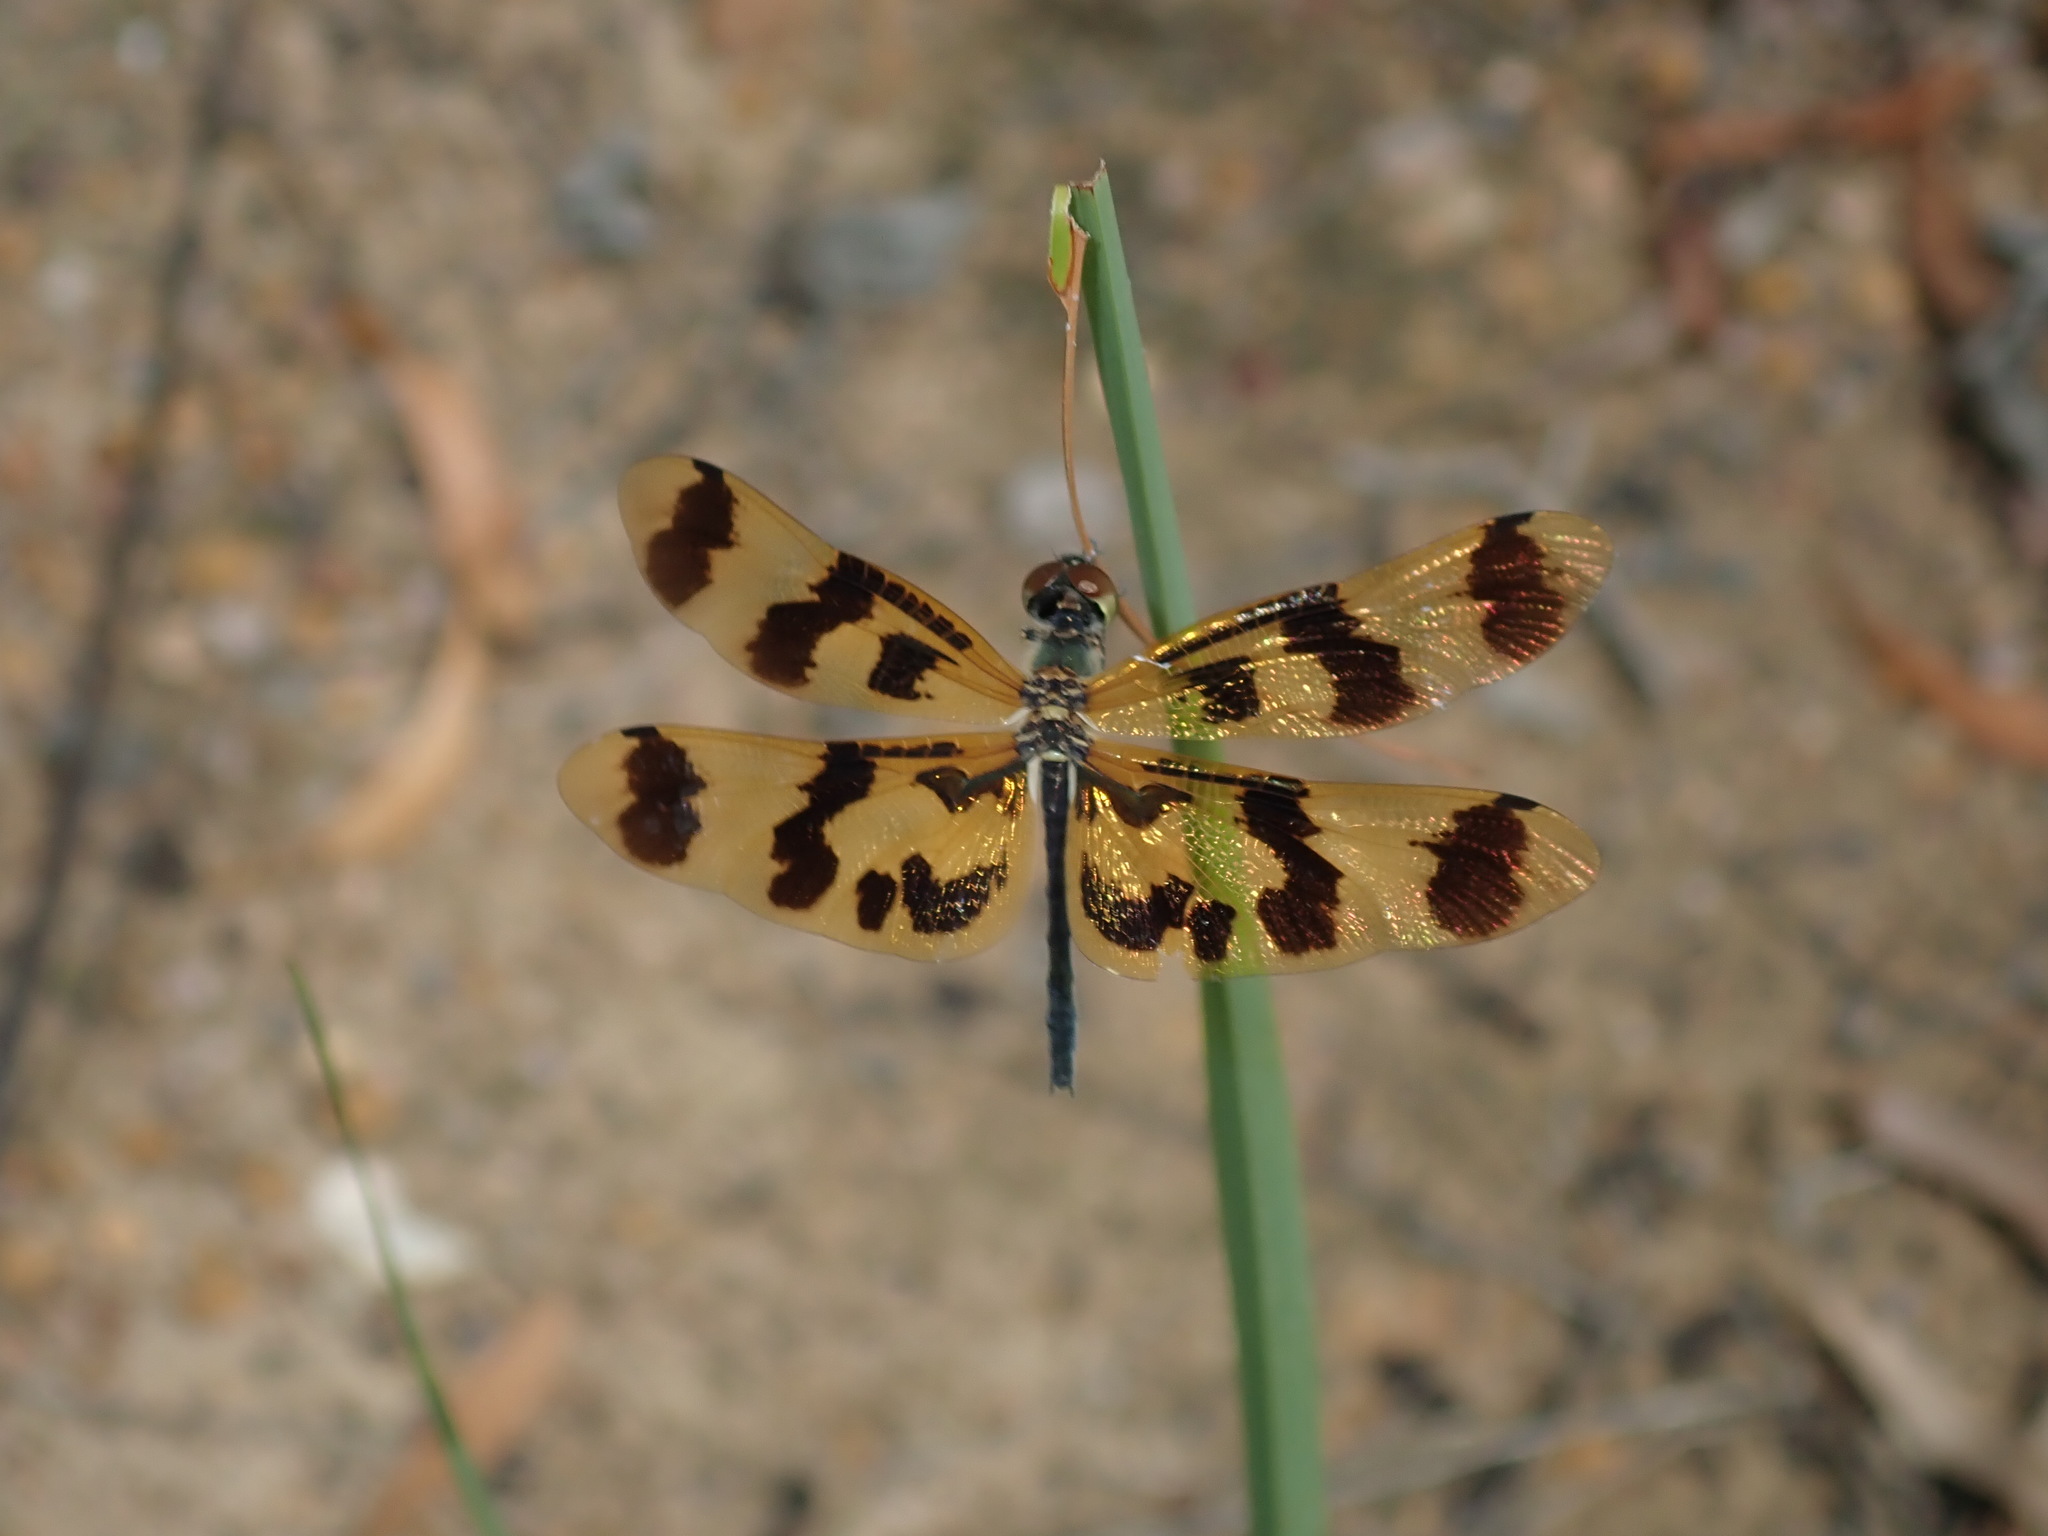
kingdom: Animalia
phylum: Arthropoda
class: Insecta
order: Odonata
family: Libellulidae
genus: Rhyothemis
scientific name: Rhyothemis graphiptera
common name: Graphic flutterer
